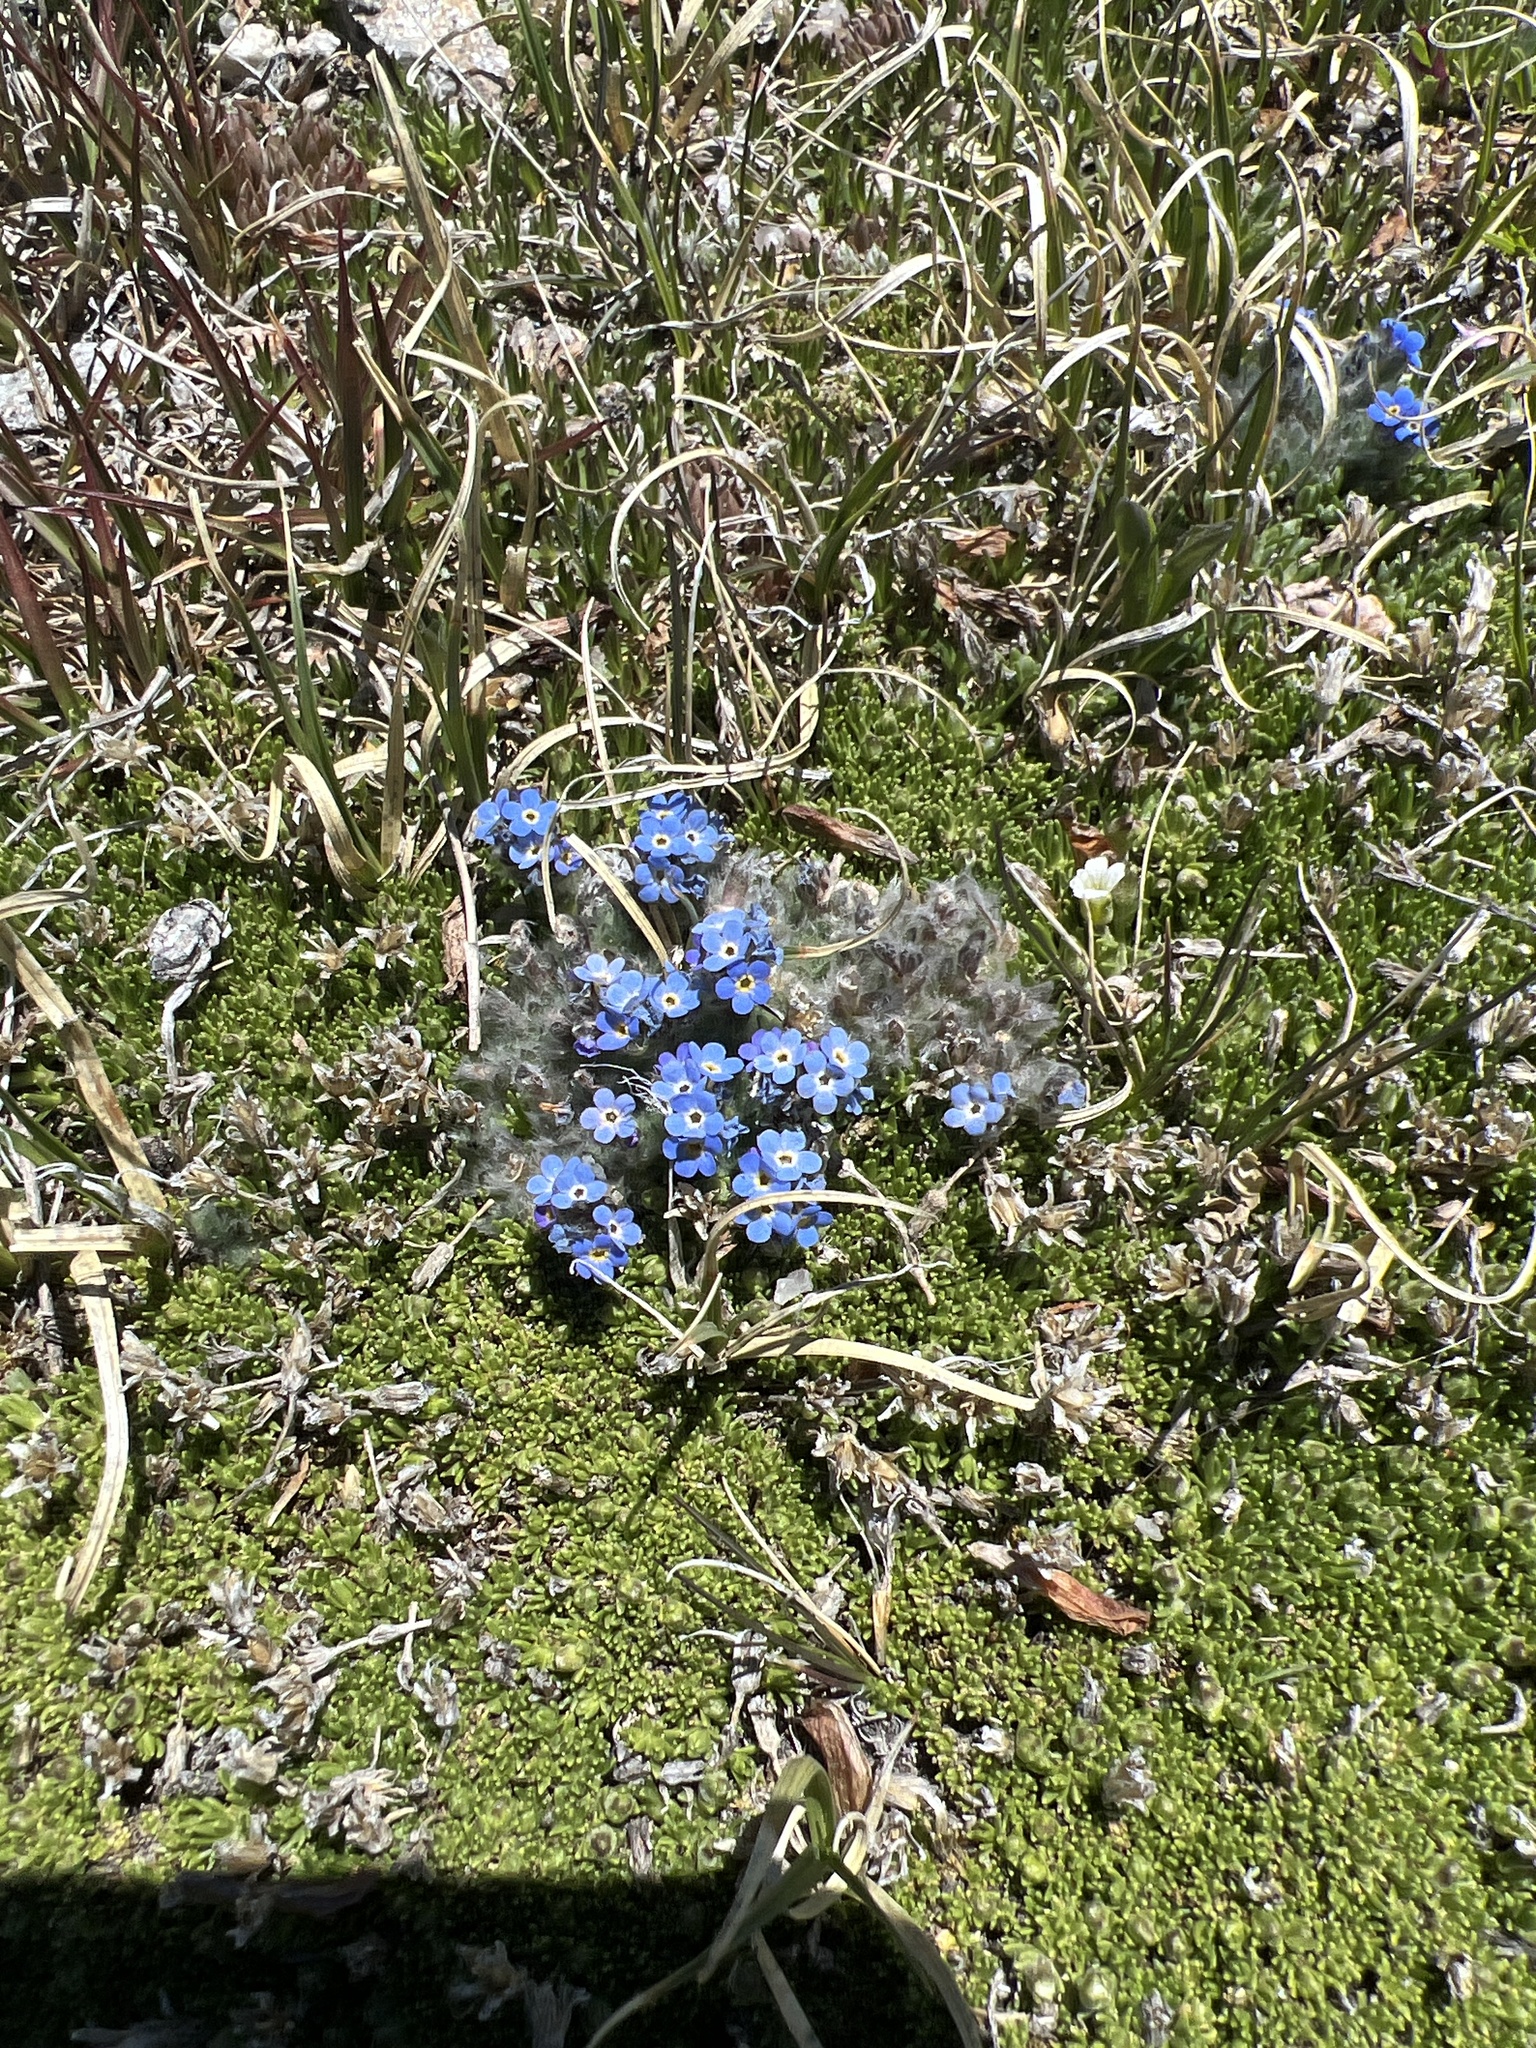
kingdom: Plantae
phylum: Tracheophyta
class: Magnoliopsida
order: Boraginales
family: Boraginaceae
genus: Eritrichium
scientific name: Eritrichium argenteum
